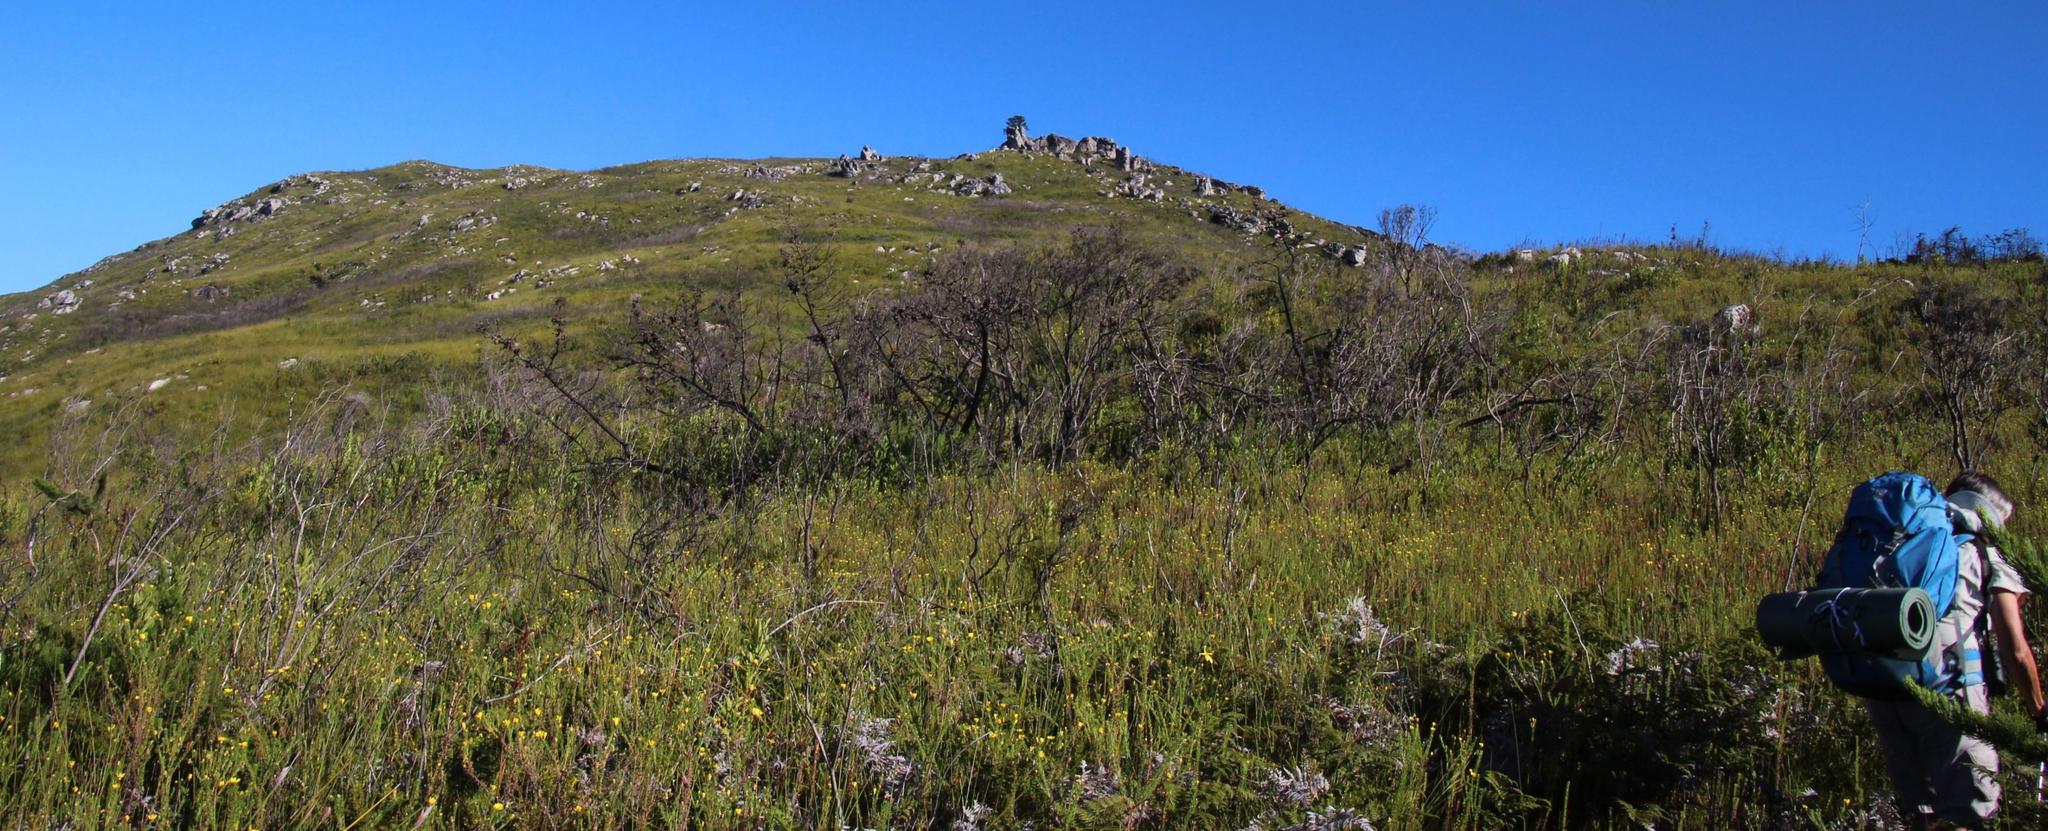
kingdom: Plantae
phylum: Tracheophyta
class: Pinopsida
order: Pinales
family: Cupressaceae
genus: Widdringtonia
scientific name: Widdringtonia nodiflora
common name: Cape cypress
